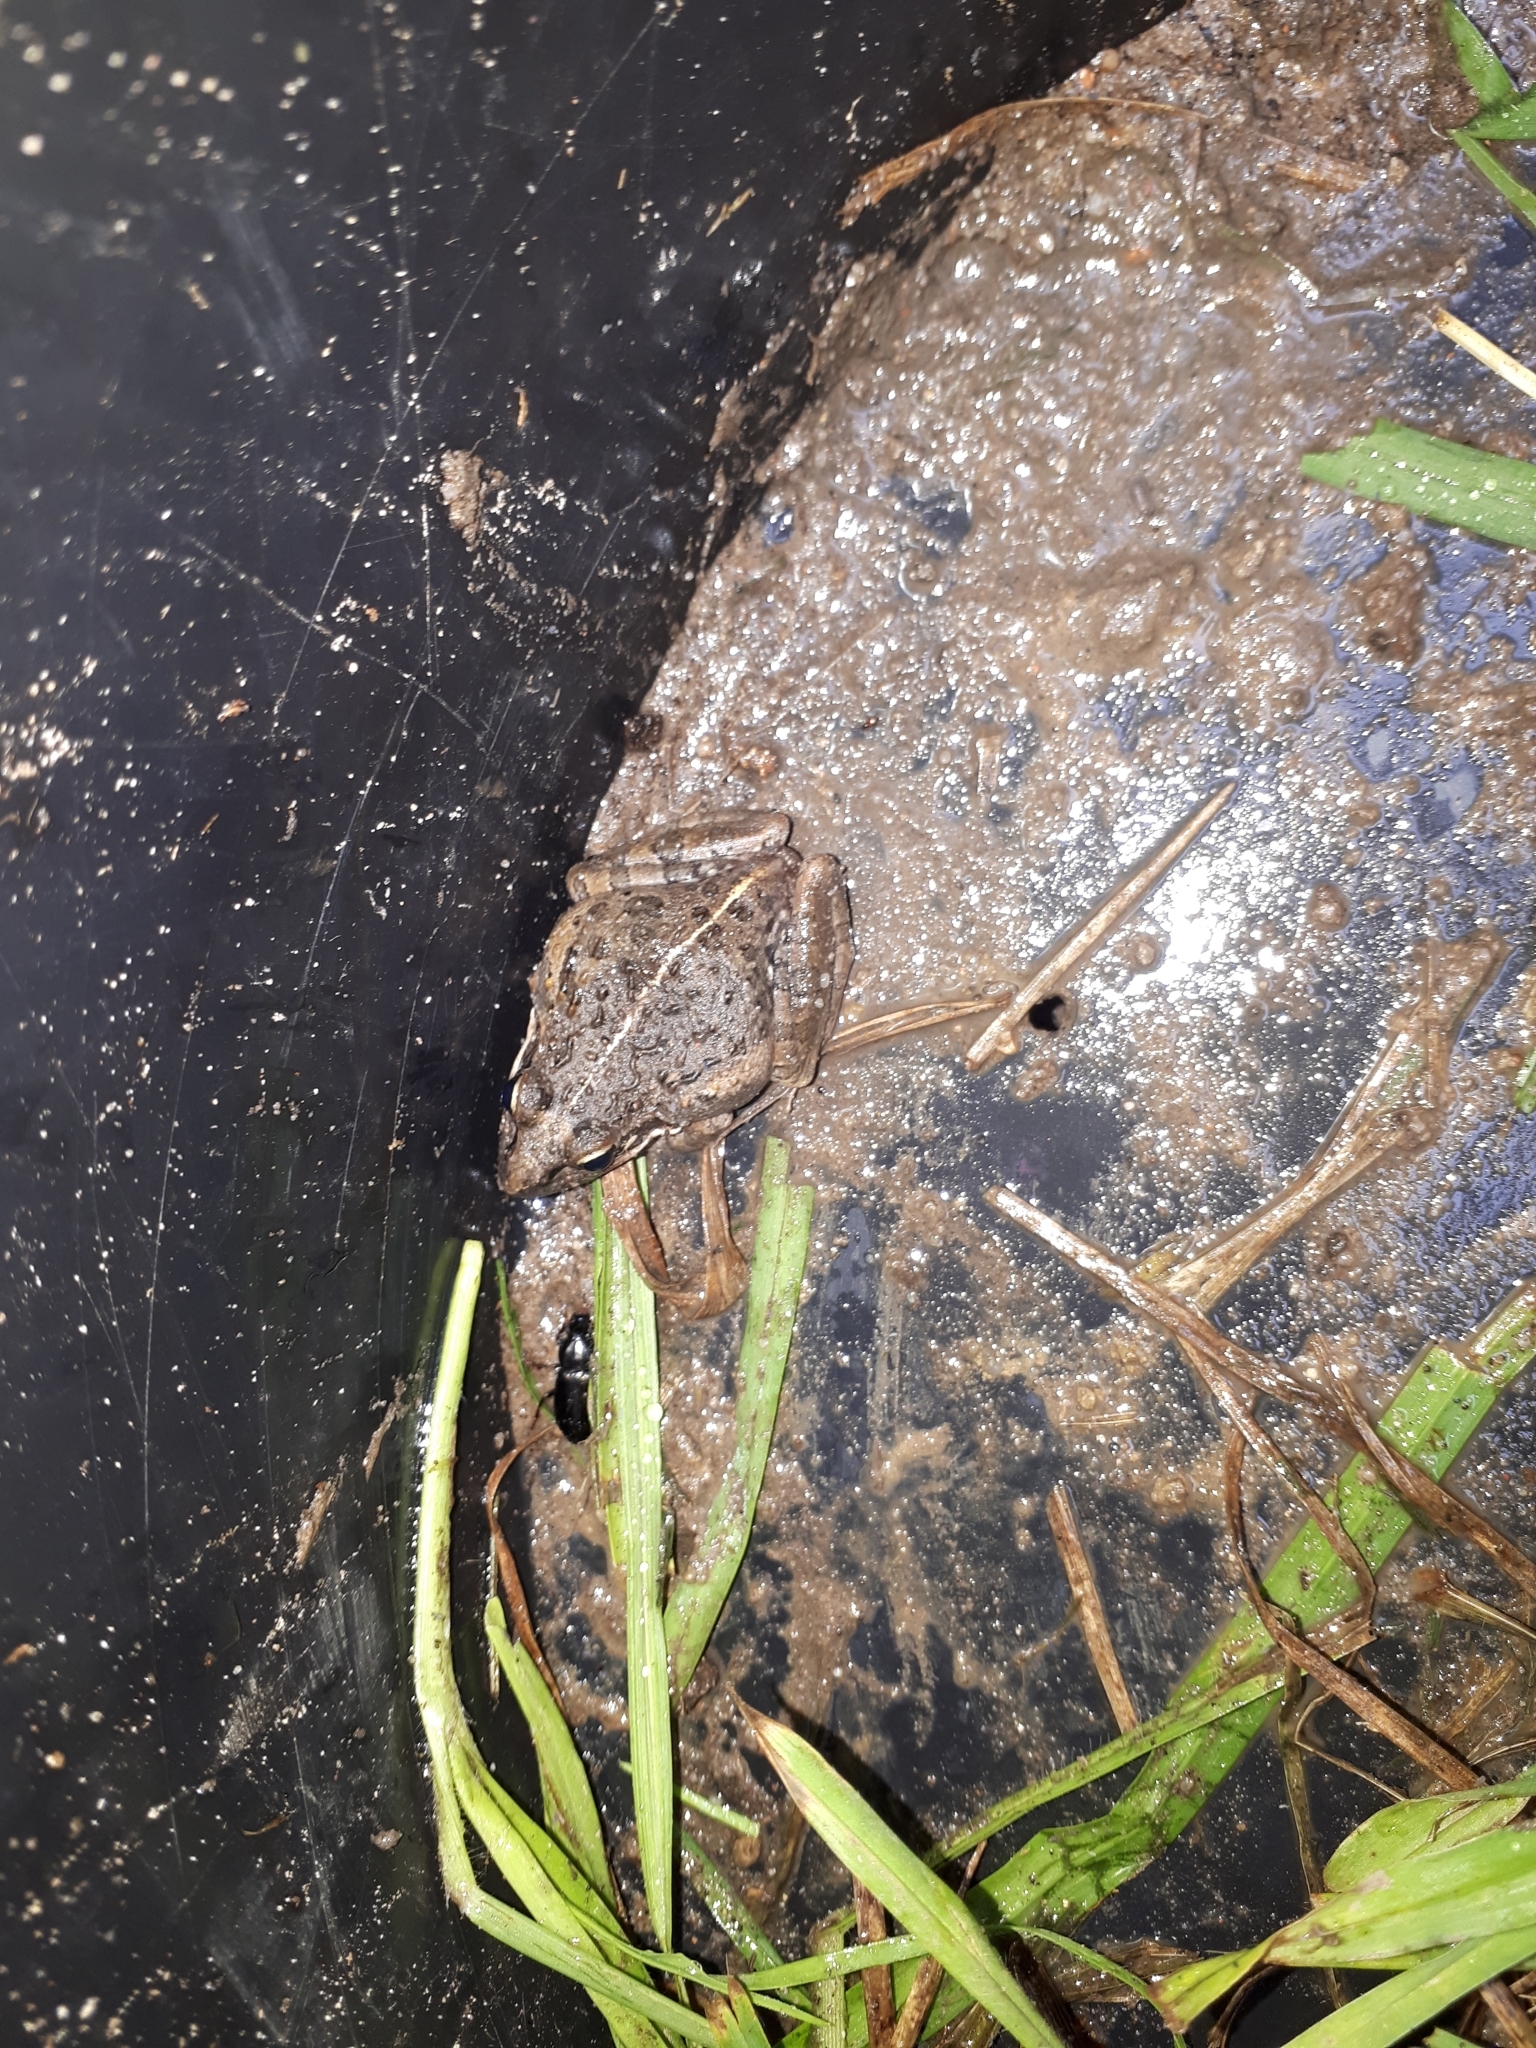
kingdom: Animalia
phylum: Chordata
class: Amphibia
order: Anura
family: Pyxicephalidae
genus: Strongylopus
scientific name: Strongylopus grayii
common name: Gray's stream frog
